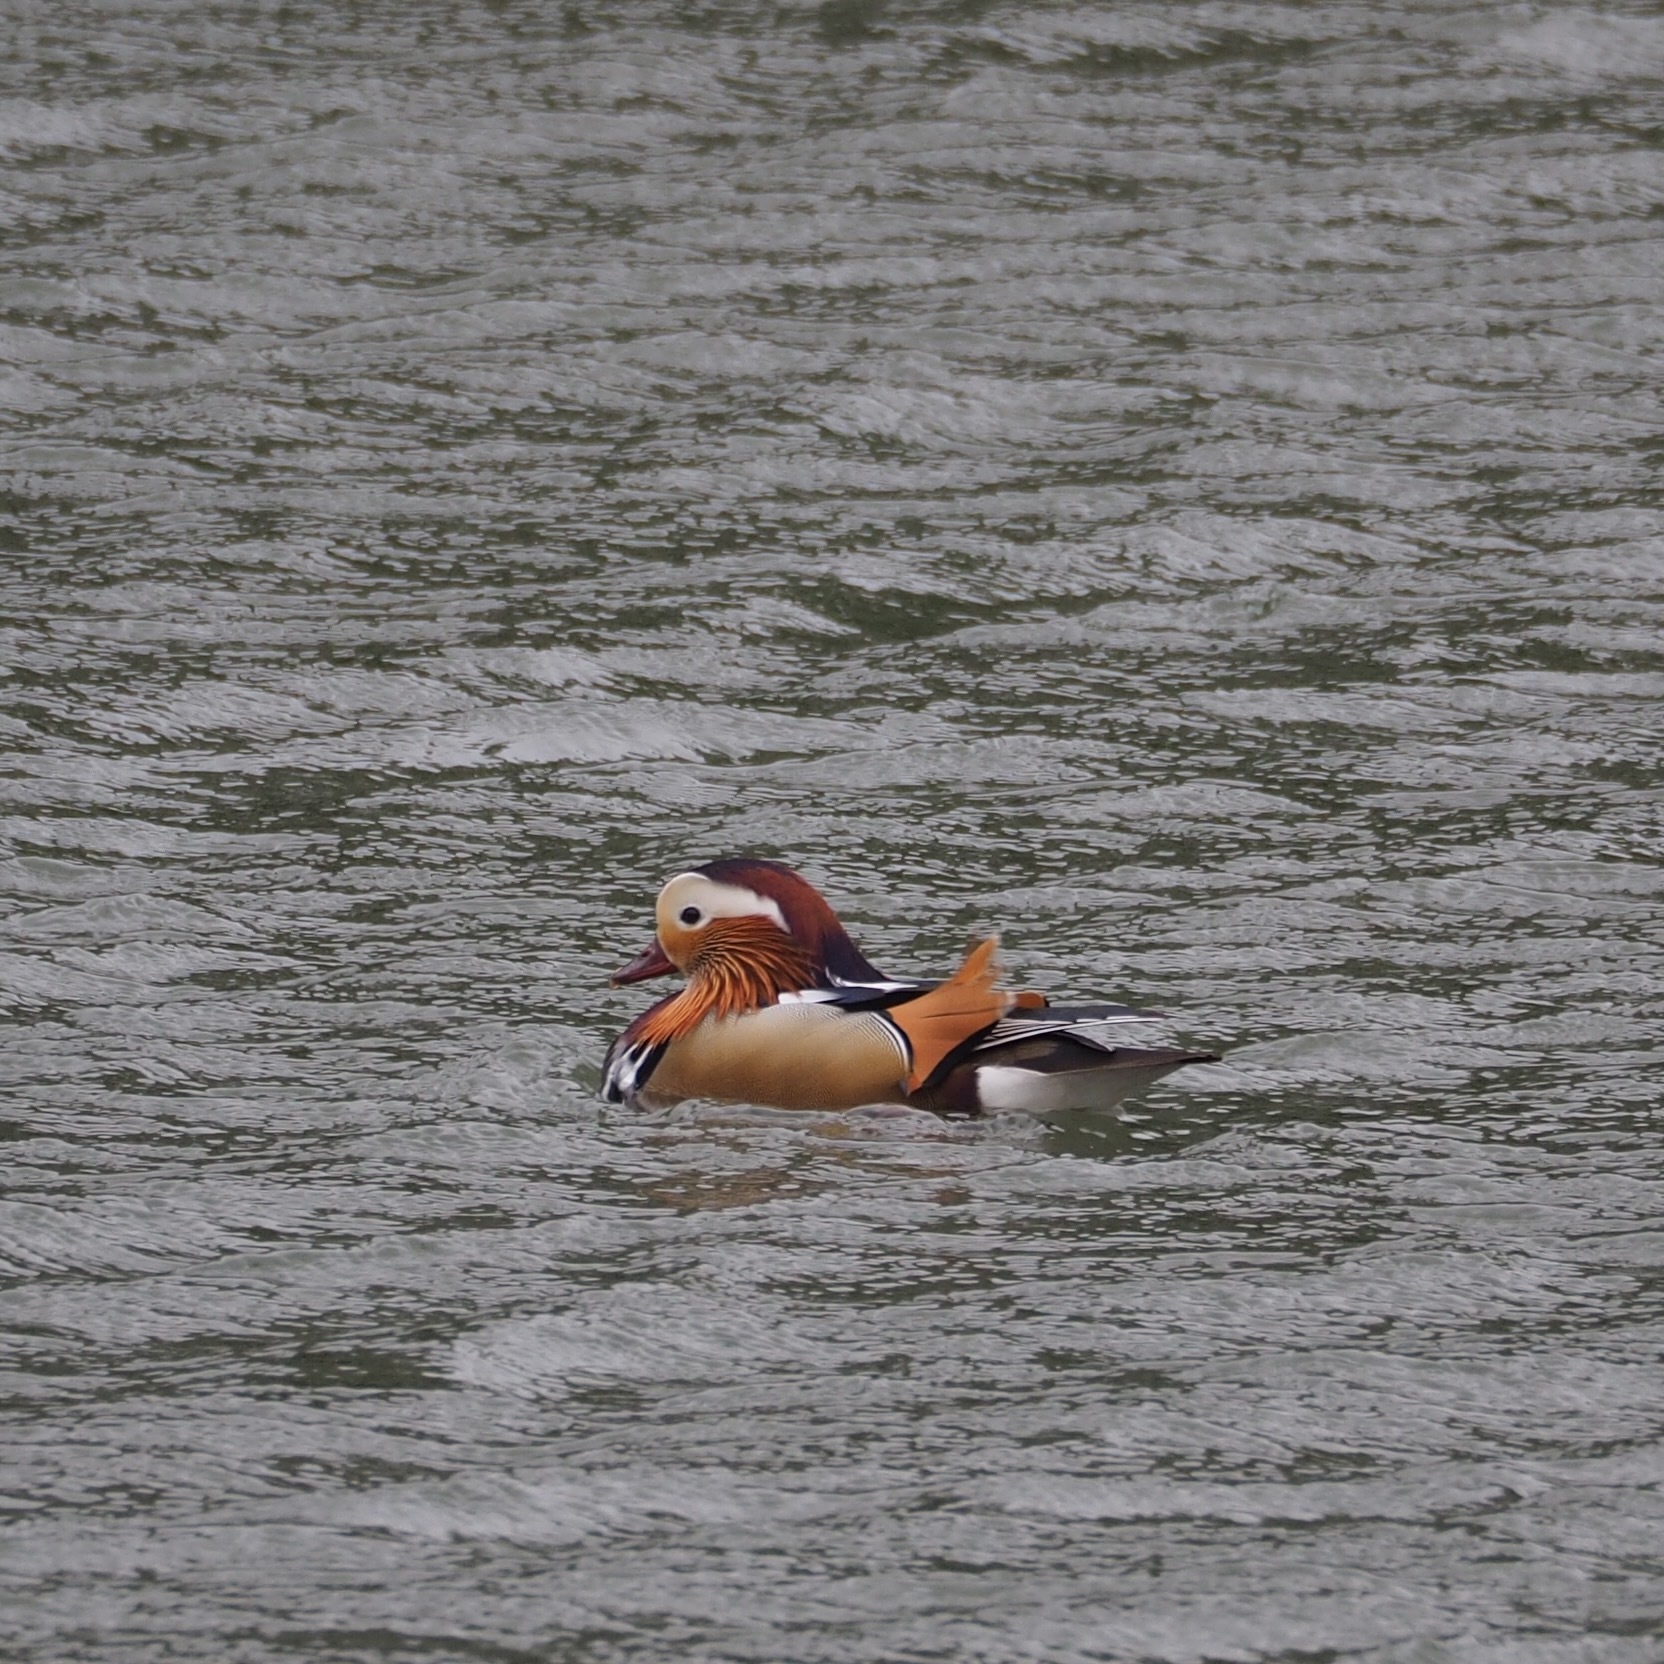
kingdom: Animalia
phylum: Chordata
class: Aves
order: Anseriformes
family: Anatidae
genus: Aix
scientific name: Aix galericulata
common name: Mandarin duck
